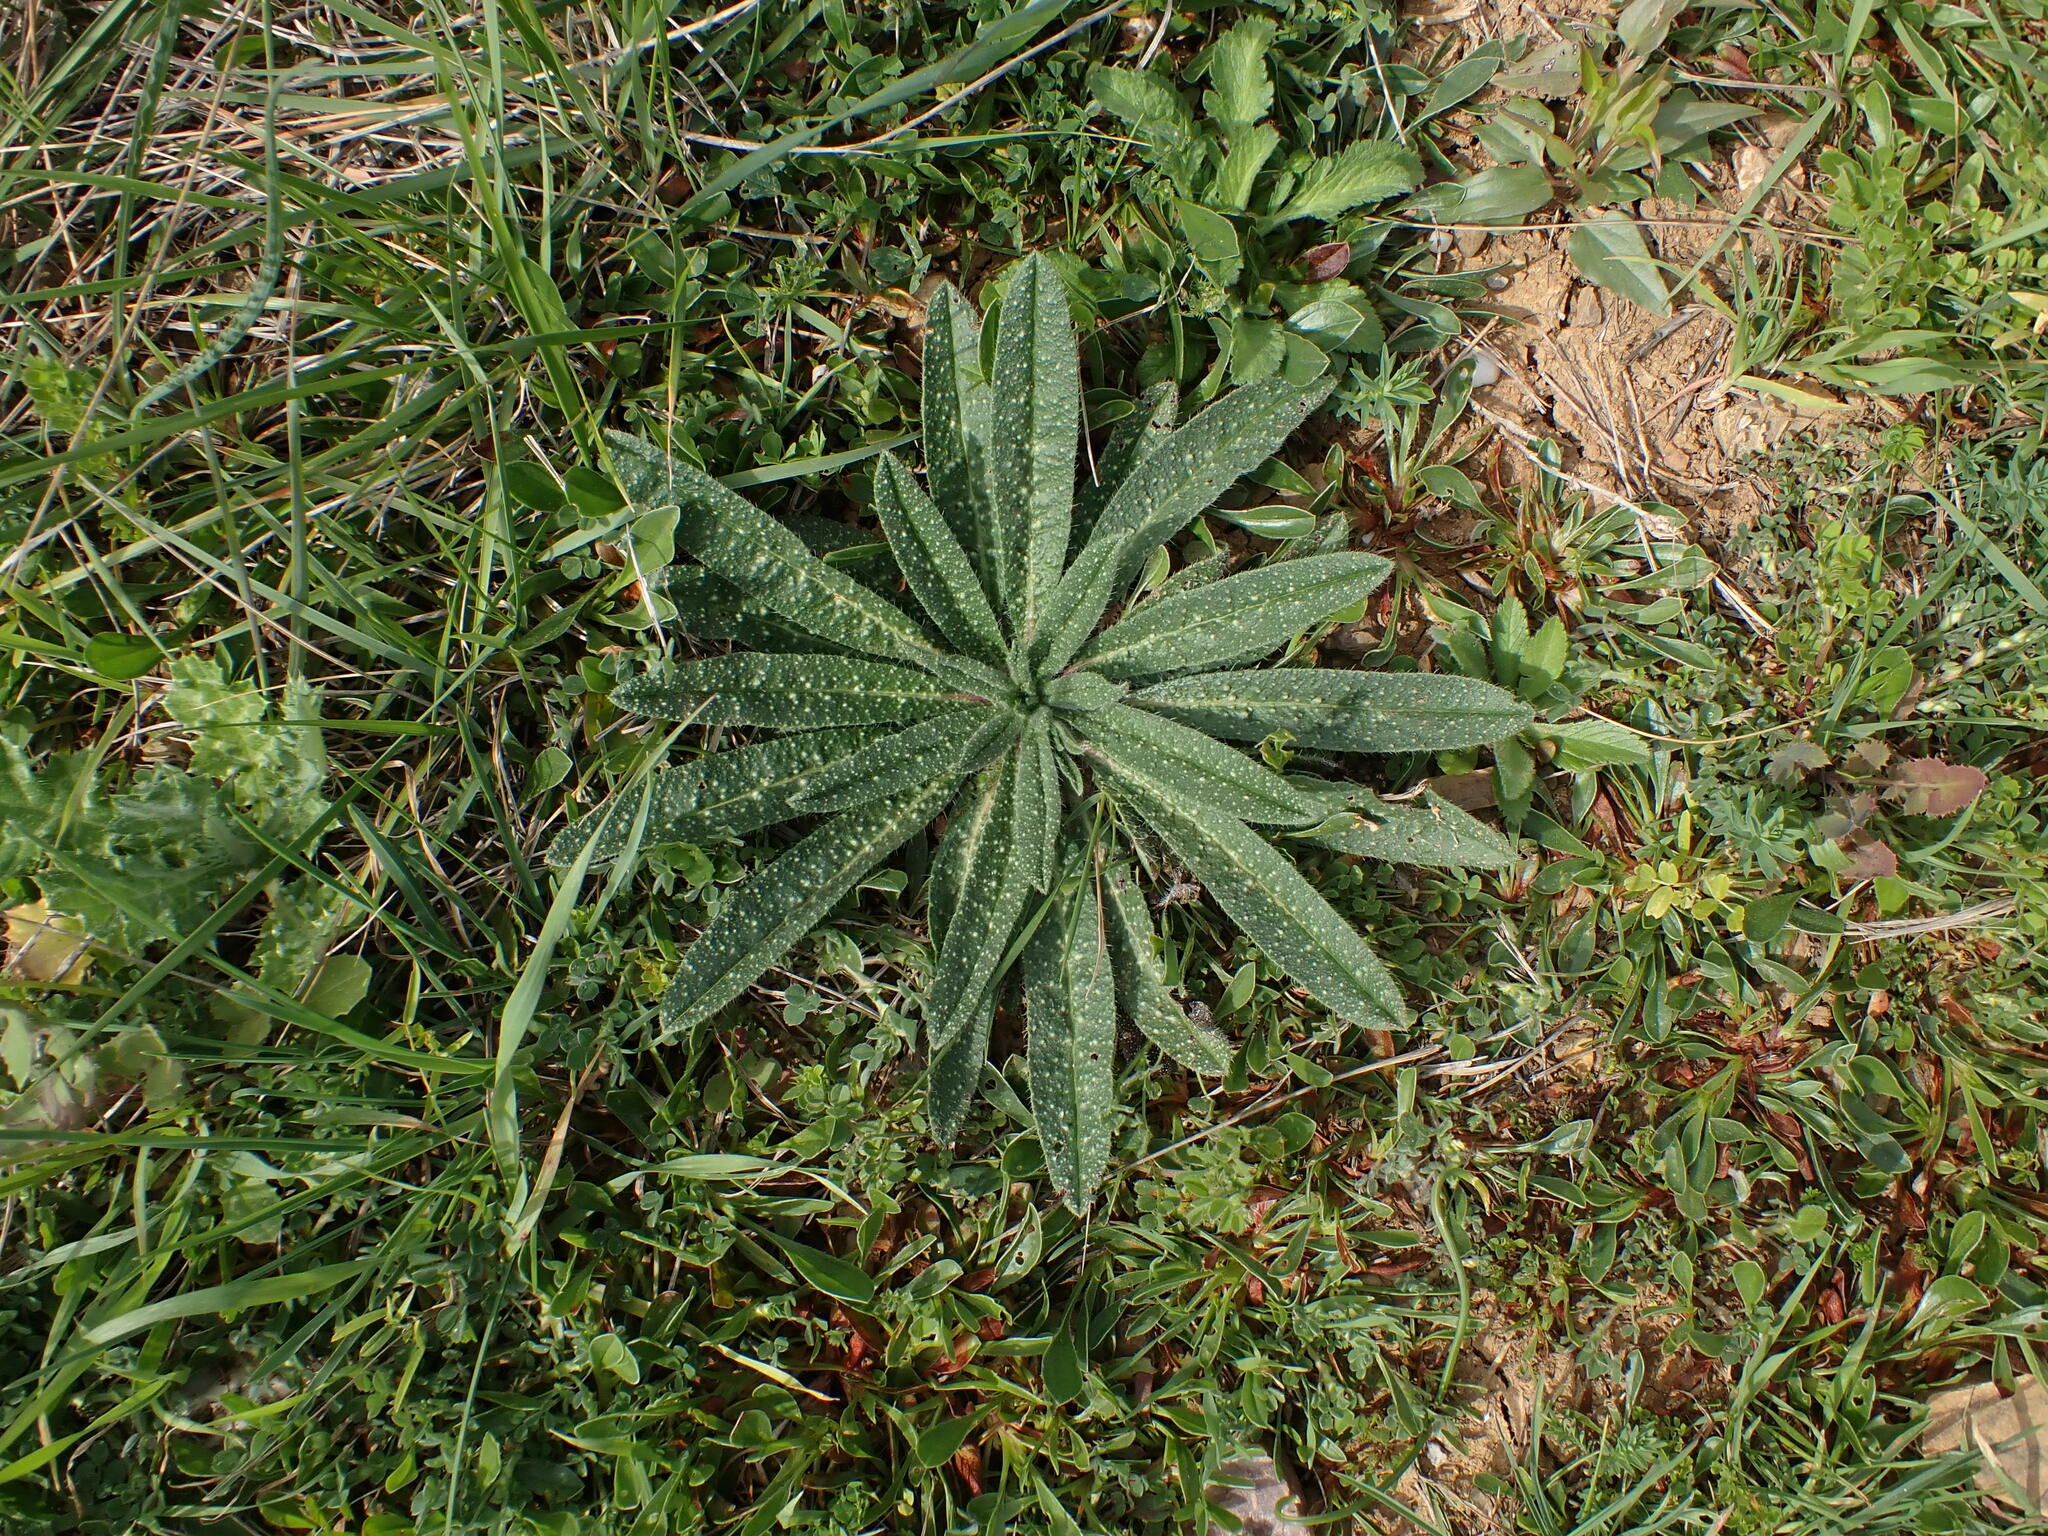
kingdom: Plantae
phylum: Tracheophyta
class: Magnoliopsida
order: Boraginales
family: Boraginaceae
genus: Echium
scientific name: Echium vulgare
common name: Common viper's bugloss
